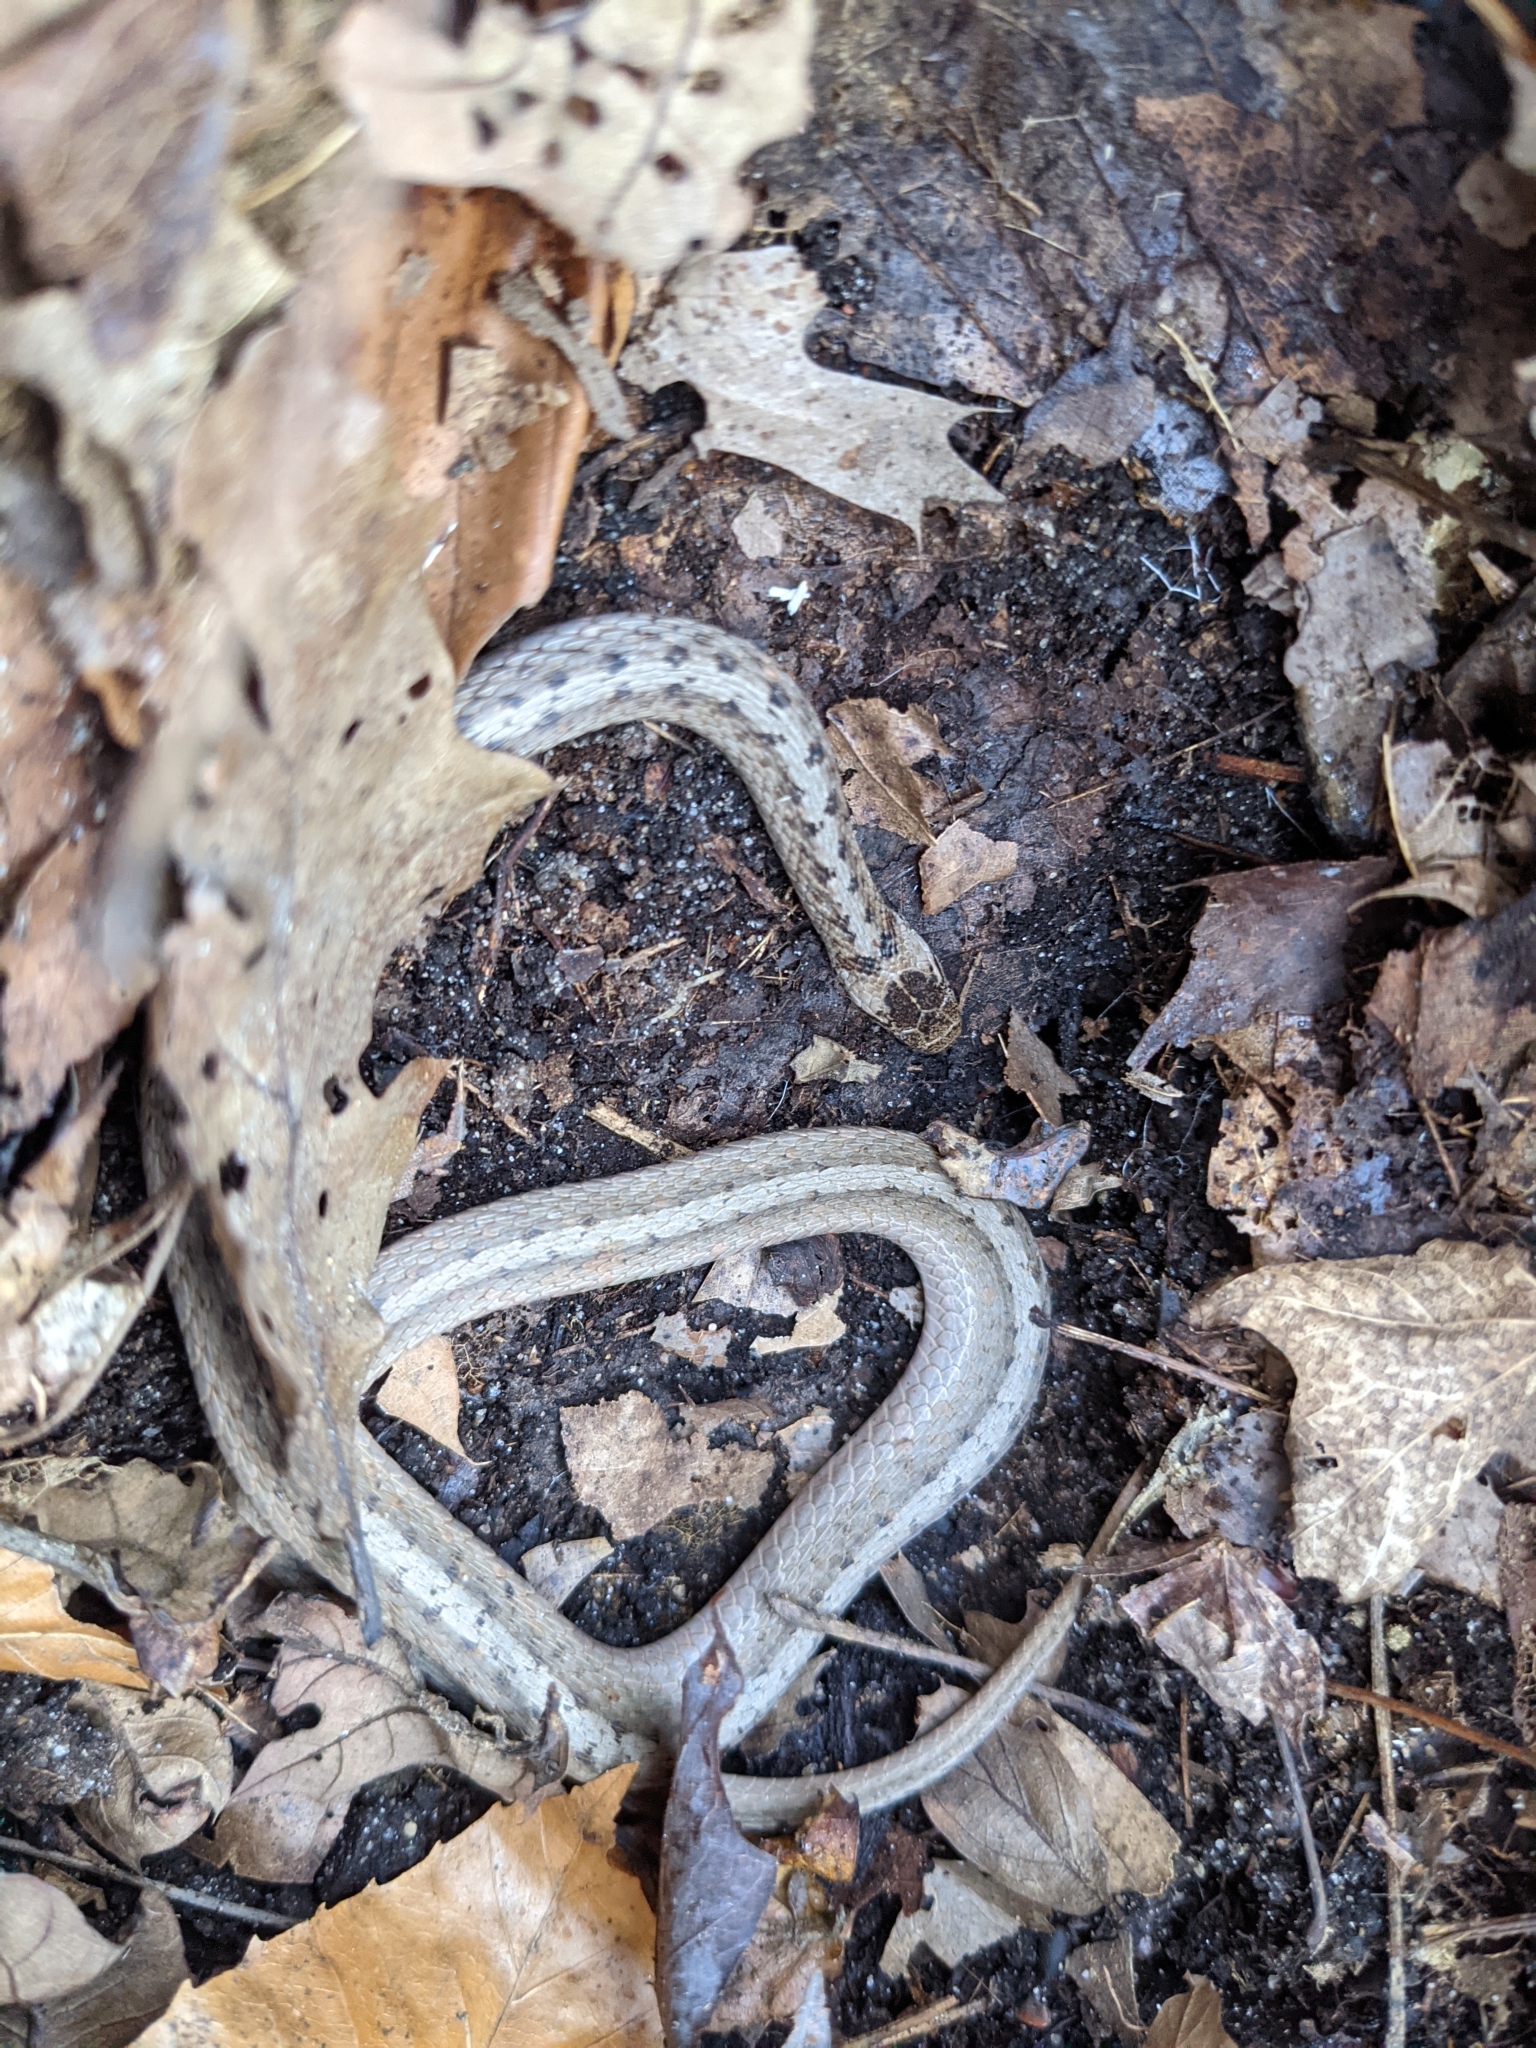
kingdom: Animalia
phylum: Chordata
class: Squamata
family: Colubridae
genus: Storeria
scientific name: Storeria dekayi
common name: (dekay’s) brown snake
